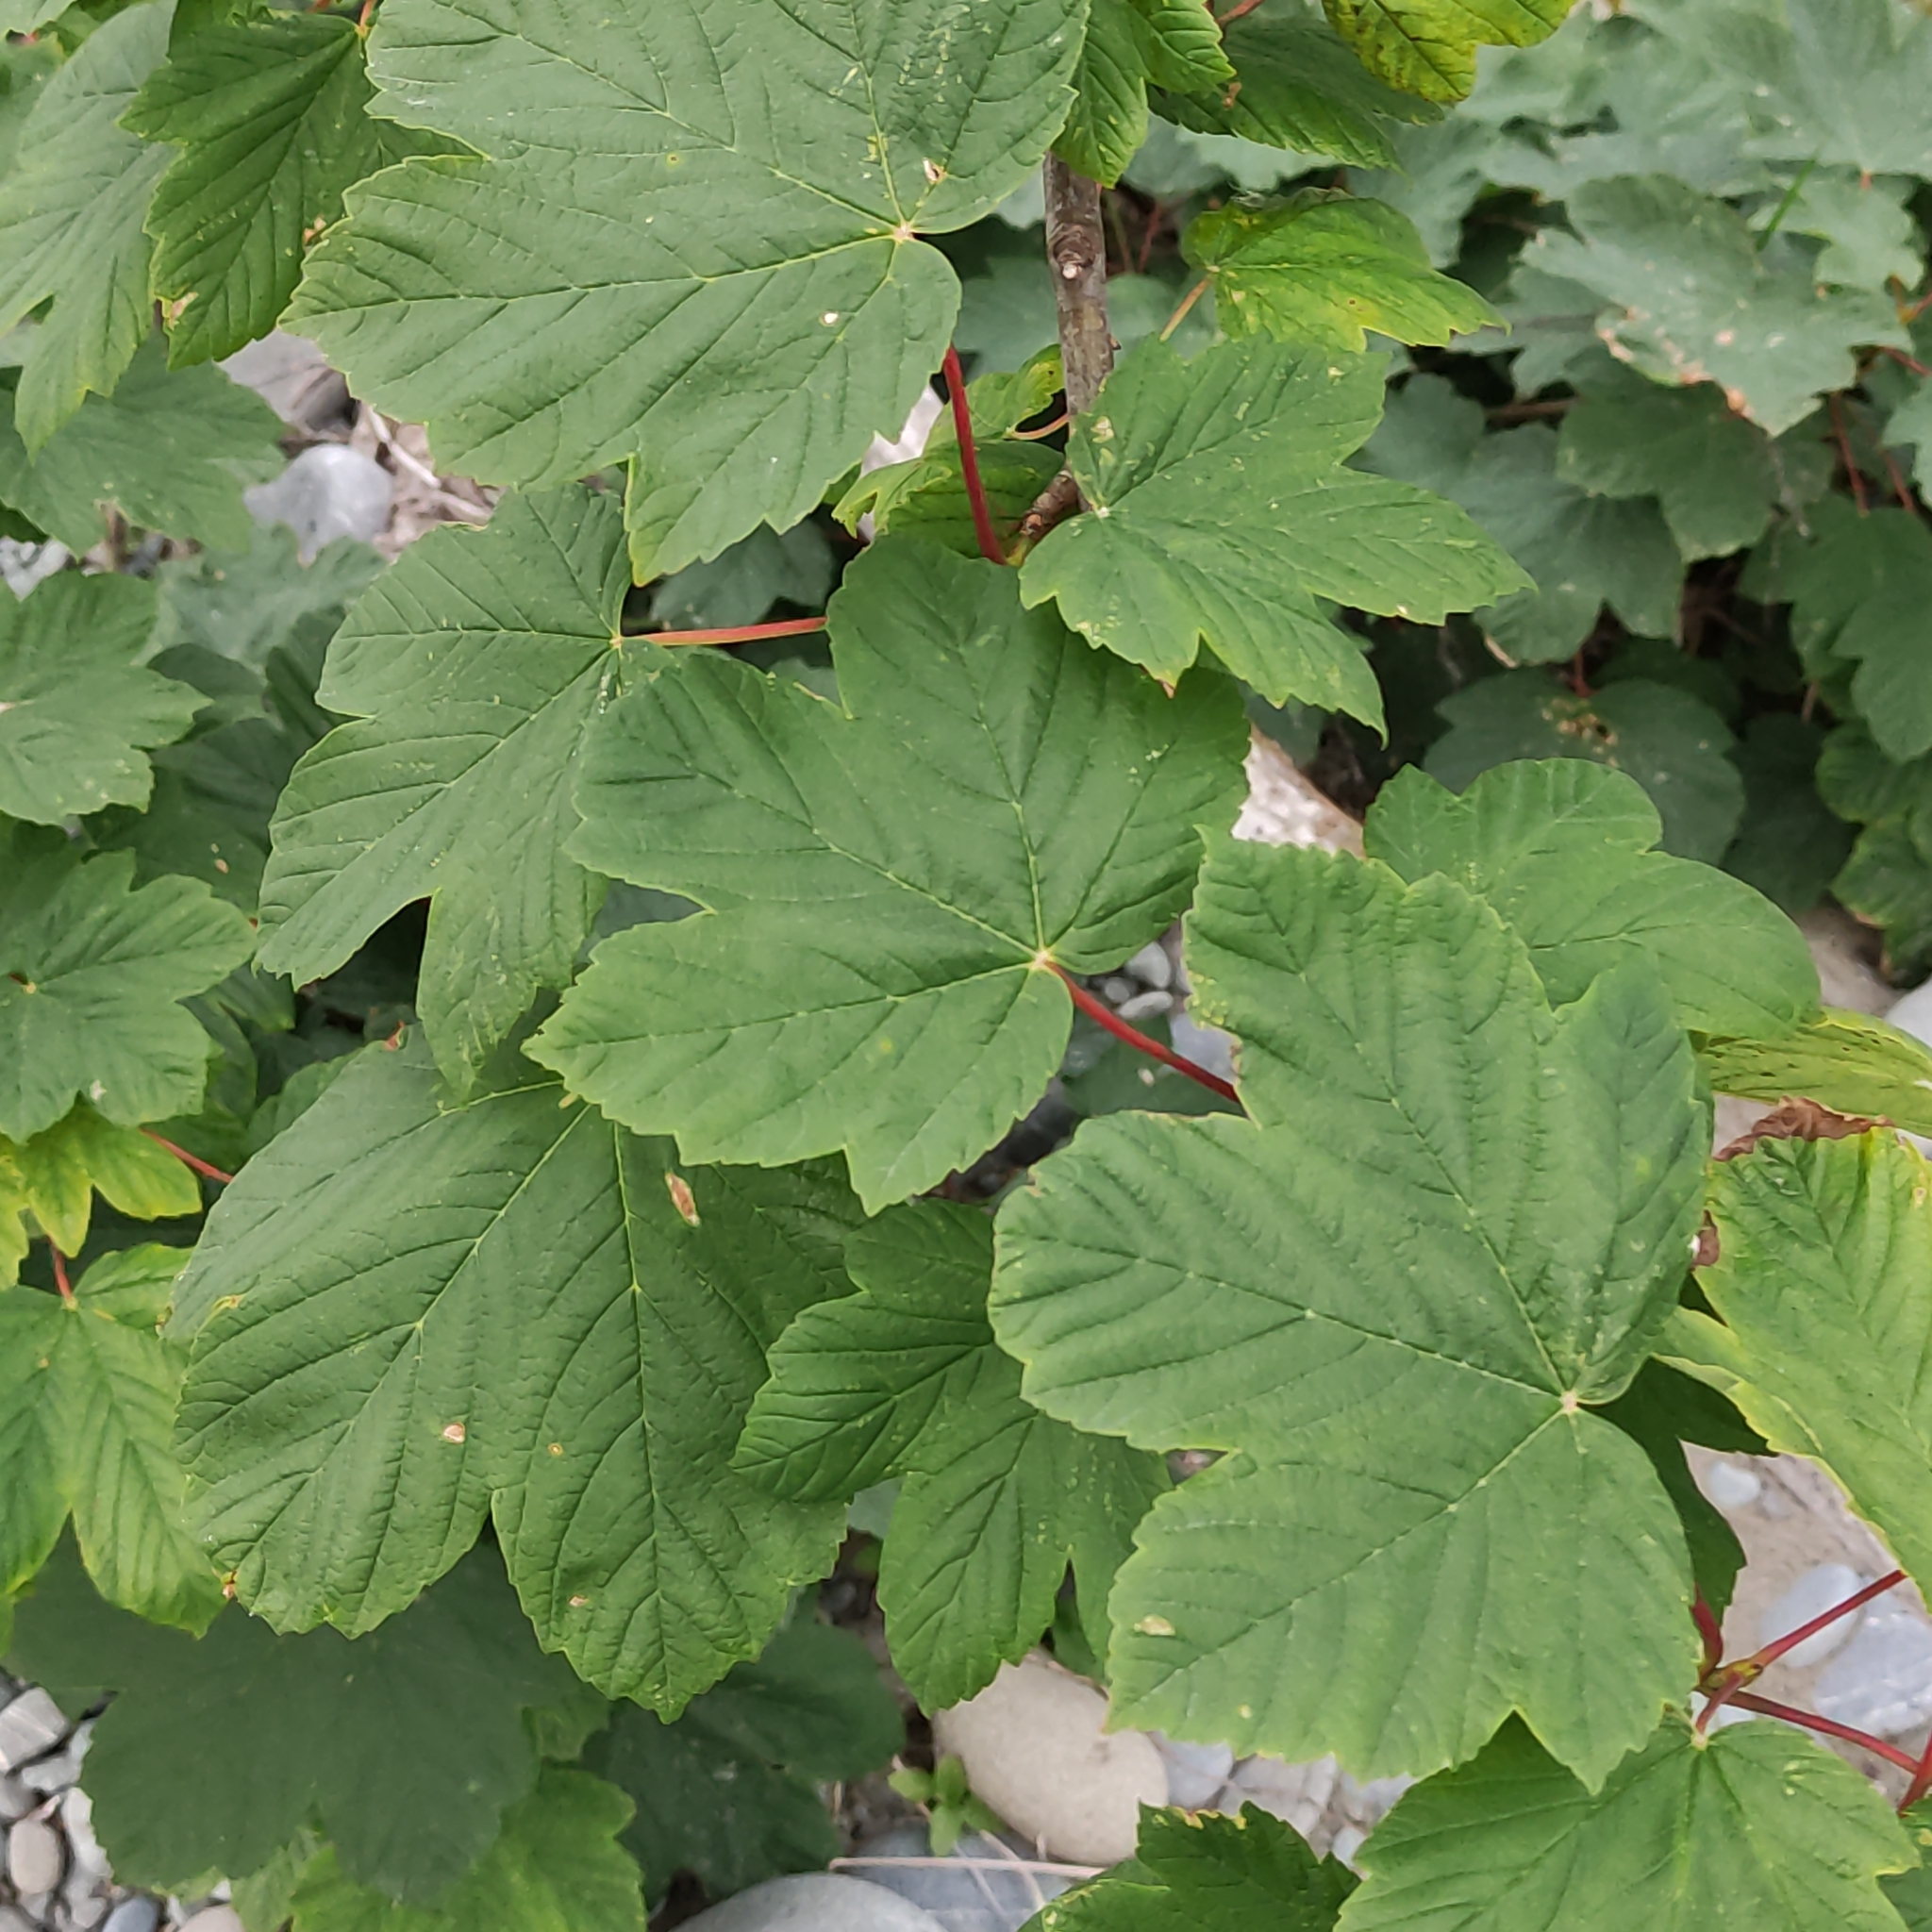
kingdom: Plantae
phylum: Tracheophyta
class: Magnoliopsida
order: Sapindales
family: Sapindaceae
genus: Acer
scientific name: Acer pseudoplatanus
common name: Sycamore
